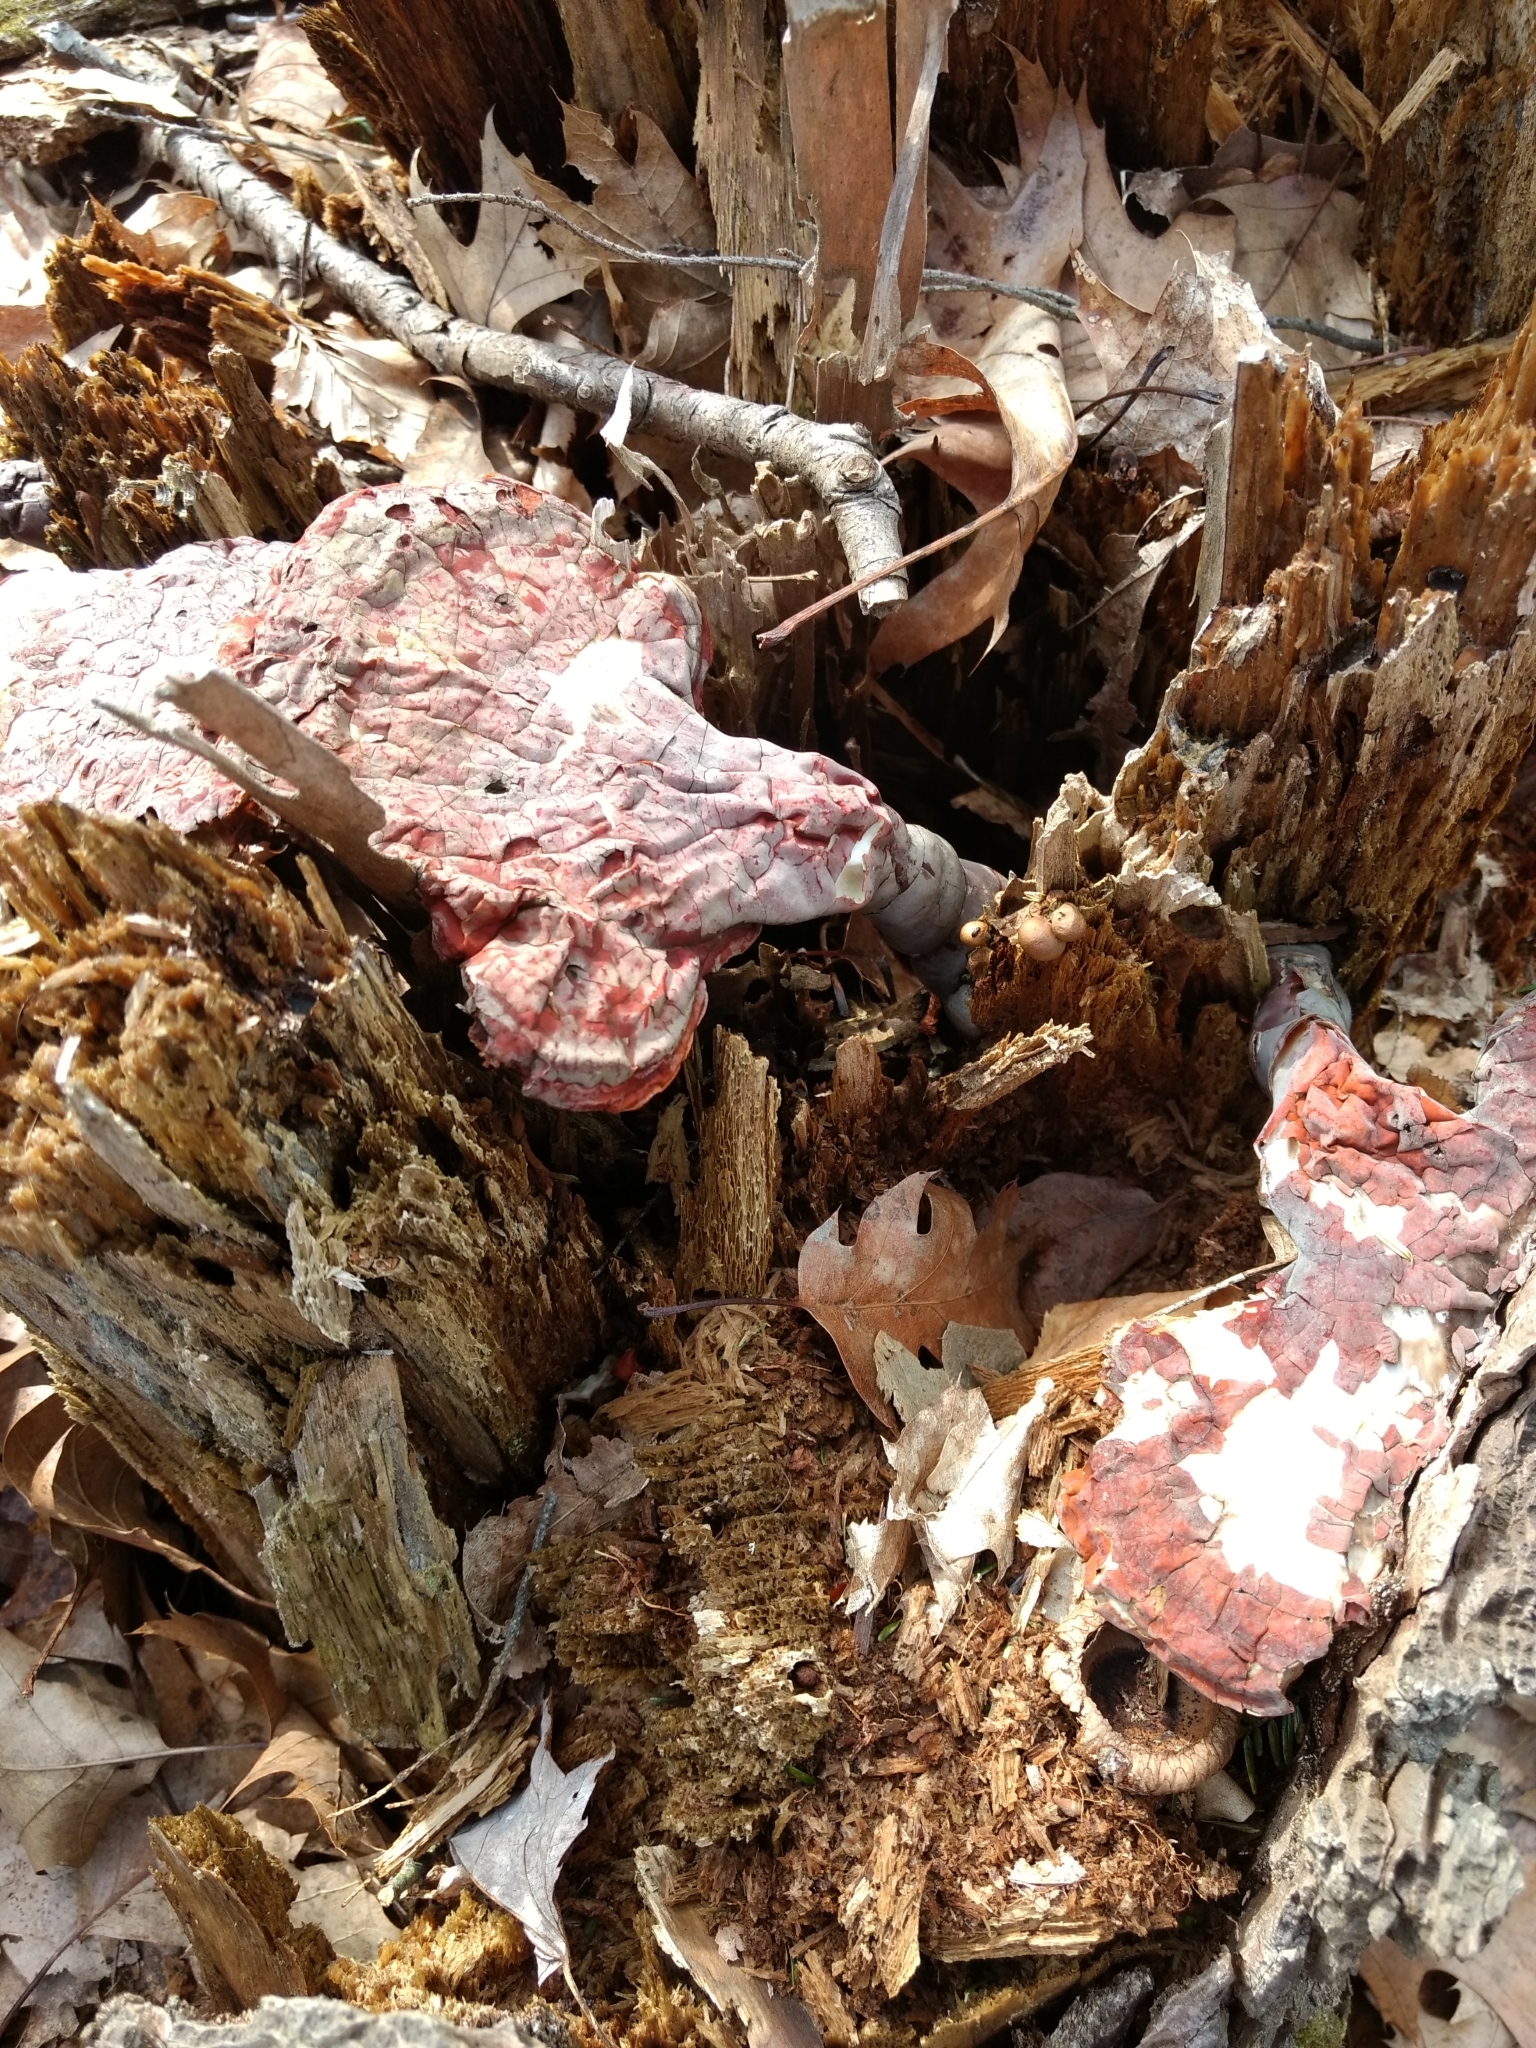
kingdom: Fungi
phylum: Basidiomycota
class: Agaricomycetes
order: Polyporales
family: Polyporaceae
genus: Ganoderma
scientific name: Ganoderma tsugae
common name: Hemlock varnish shelf
